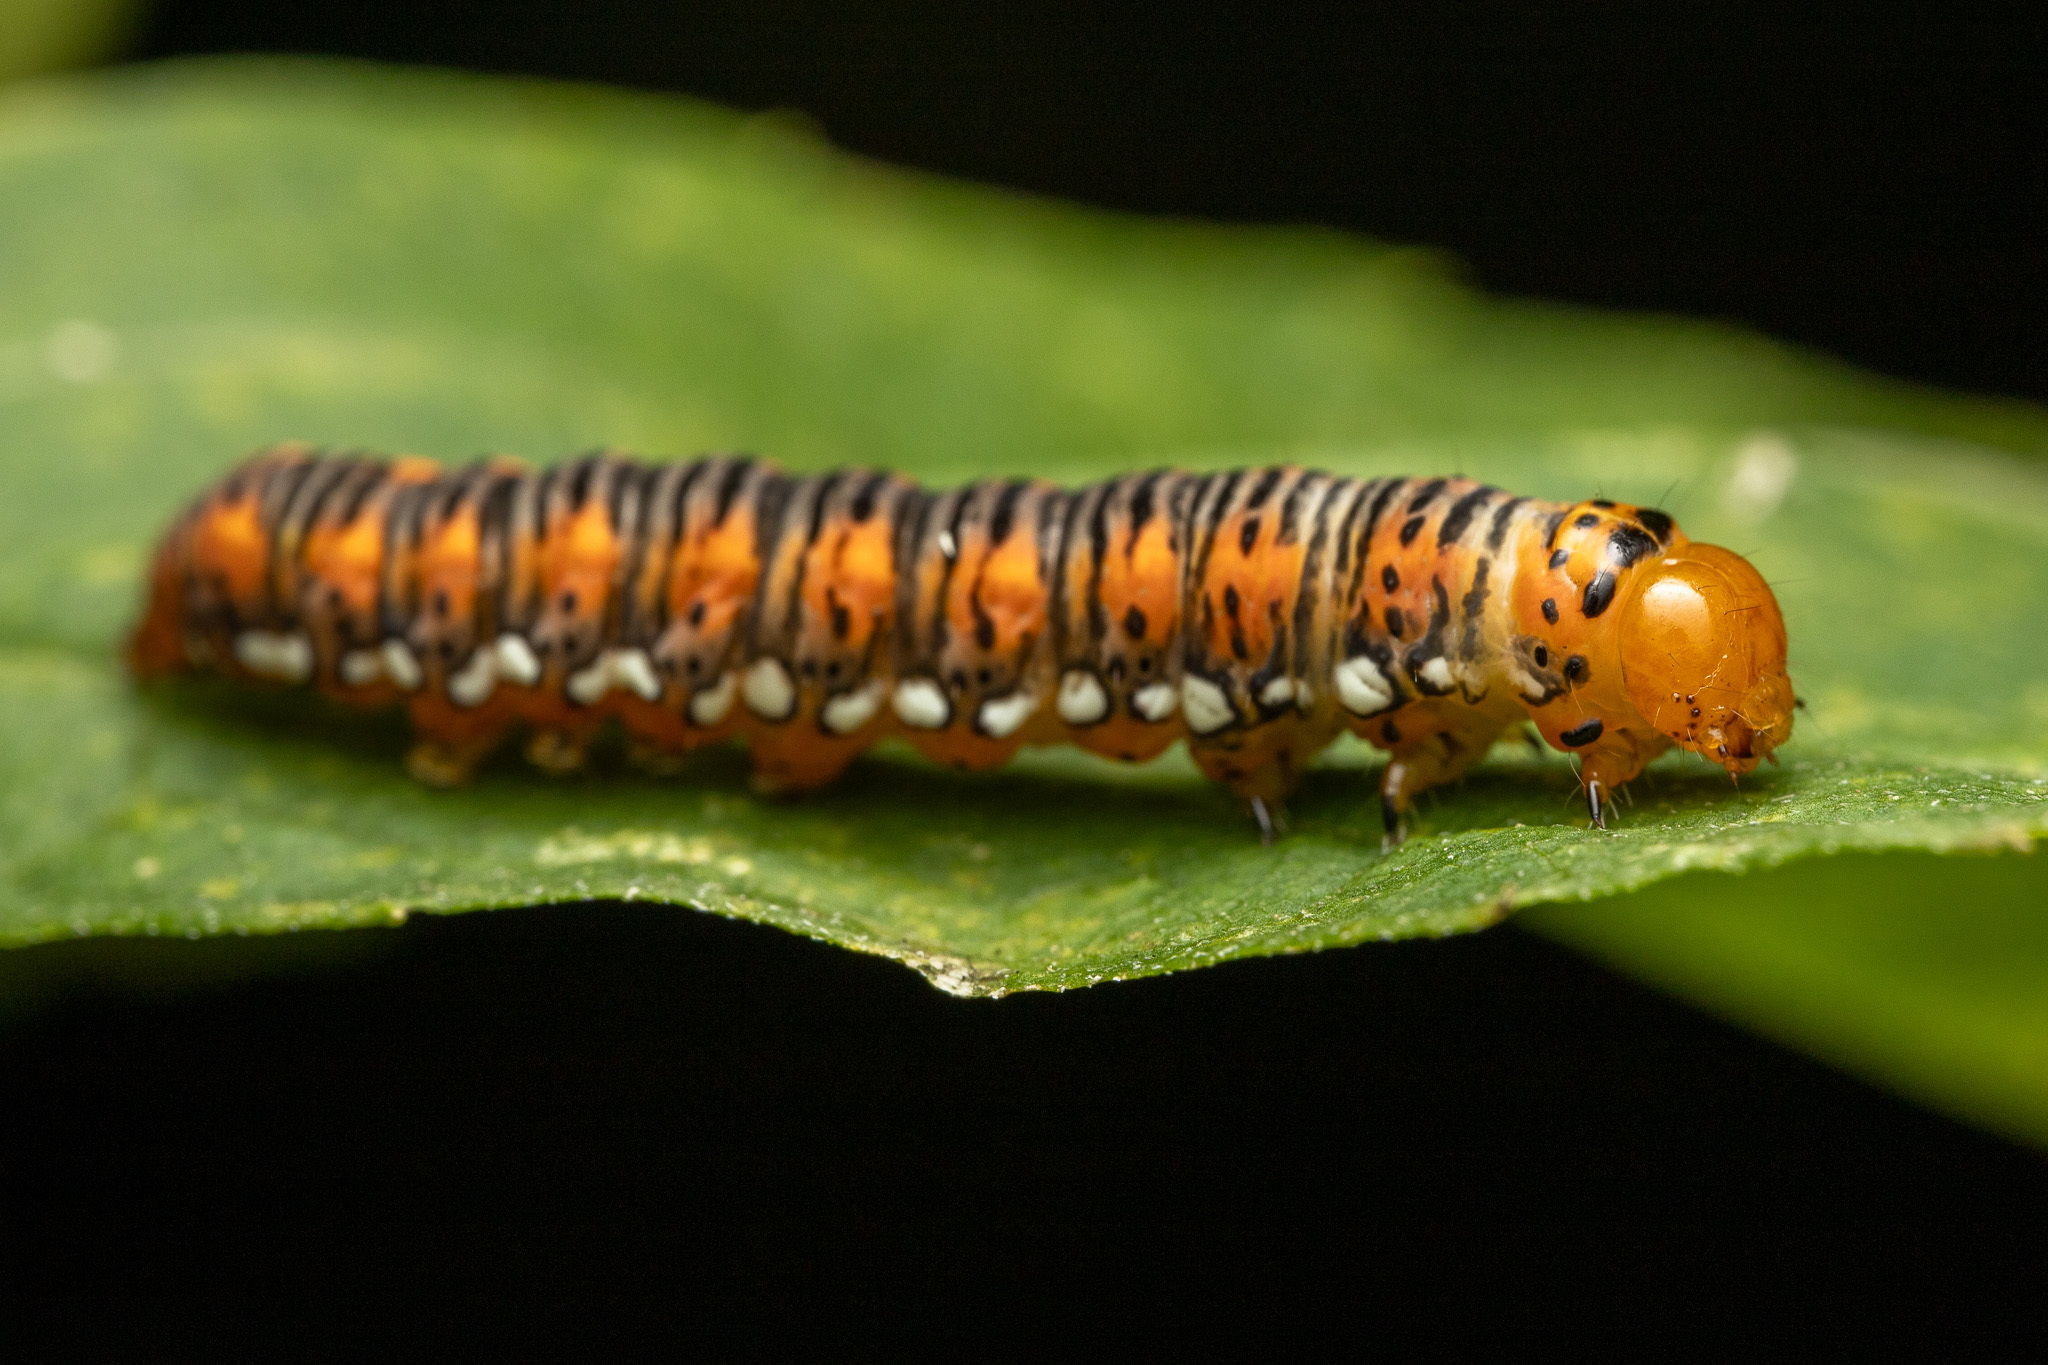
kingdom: Animalia
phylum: Arthropoda
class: Insecta
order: Lepidoptera
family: Noctuidae
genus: Basilodes
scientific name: Basilodes pepita
